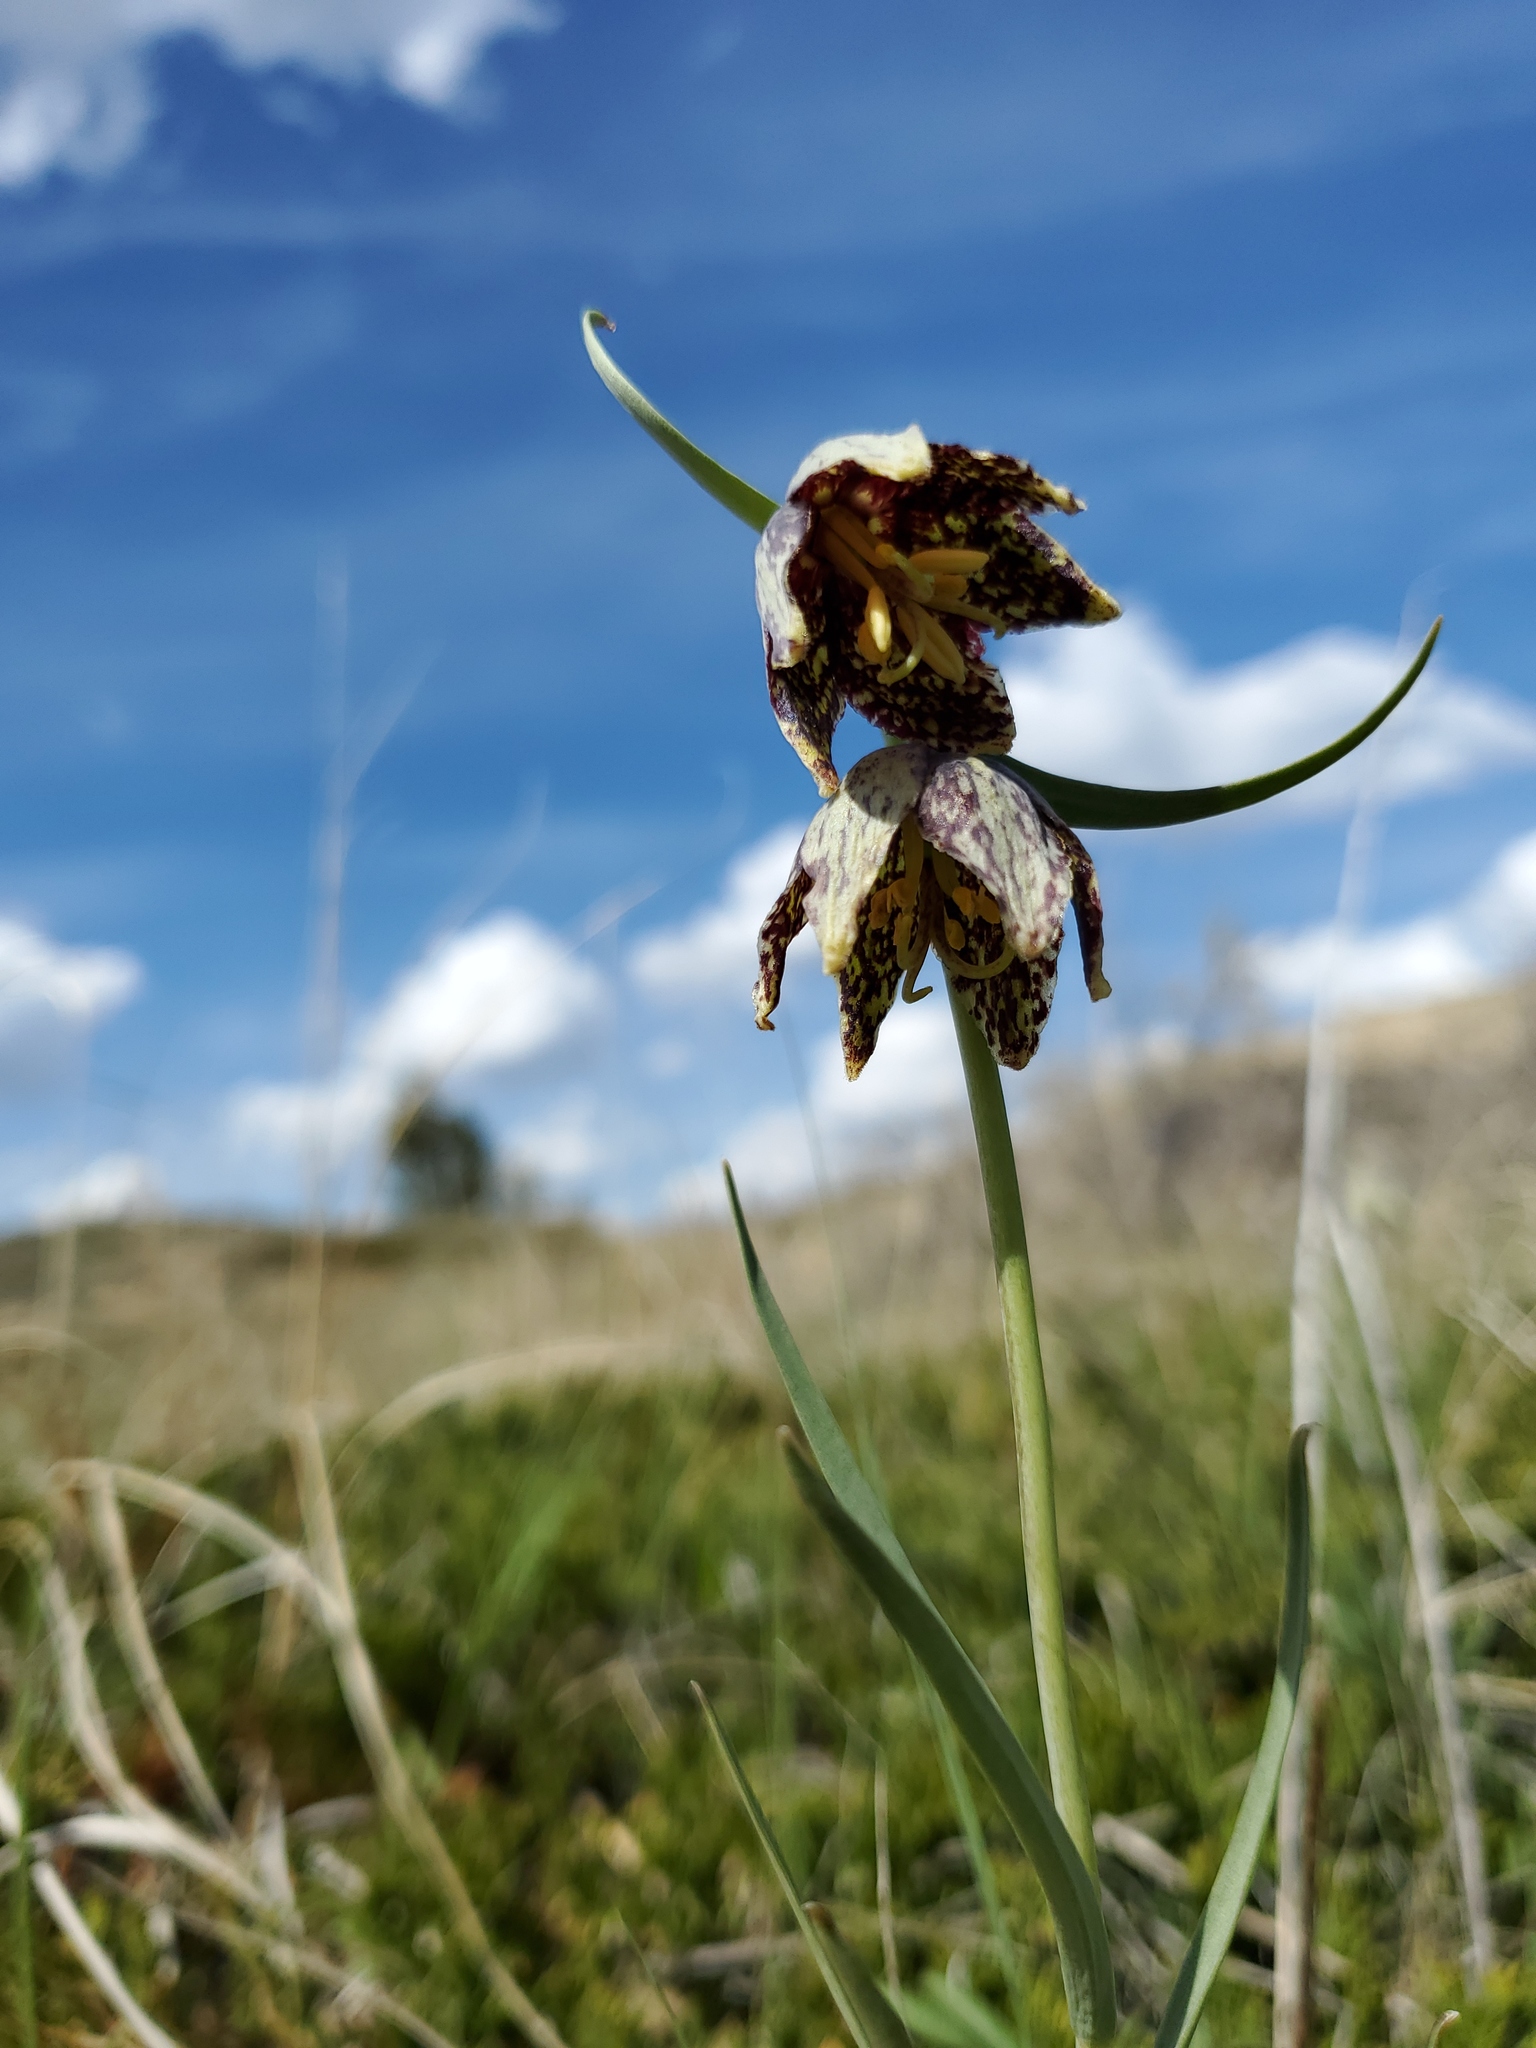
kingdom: Plantae
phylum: Tracheophyta
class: Liliopsida
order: Liliales
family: Liliaceae
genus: Fritillaria
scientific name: Fritillaria atropurpurea
